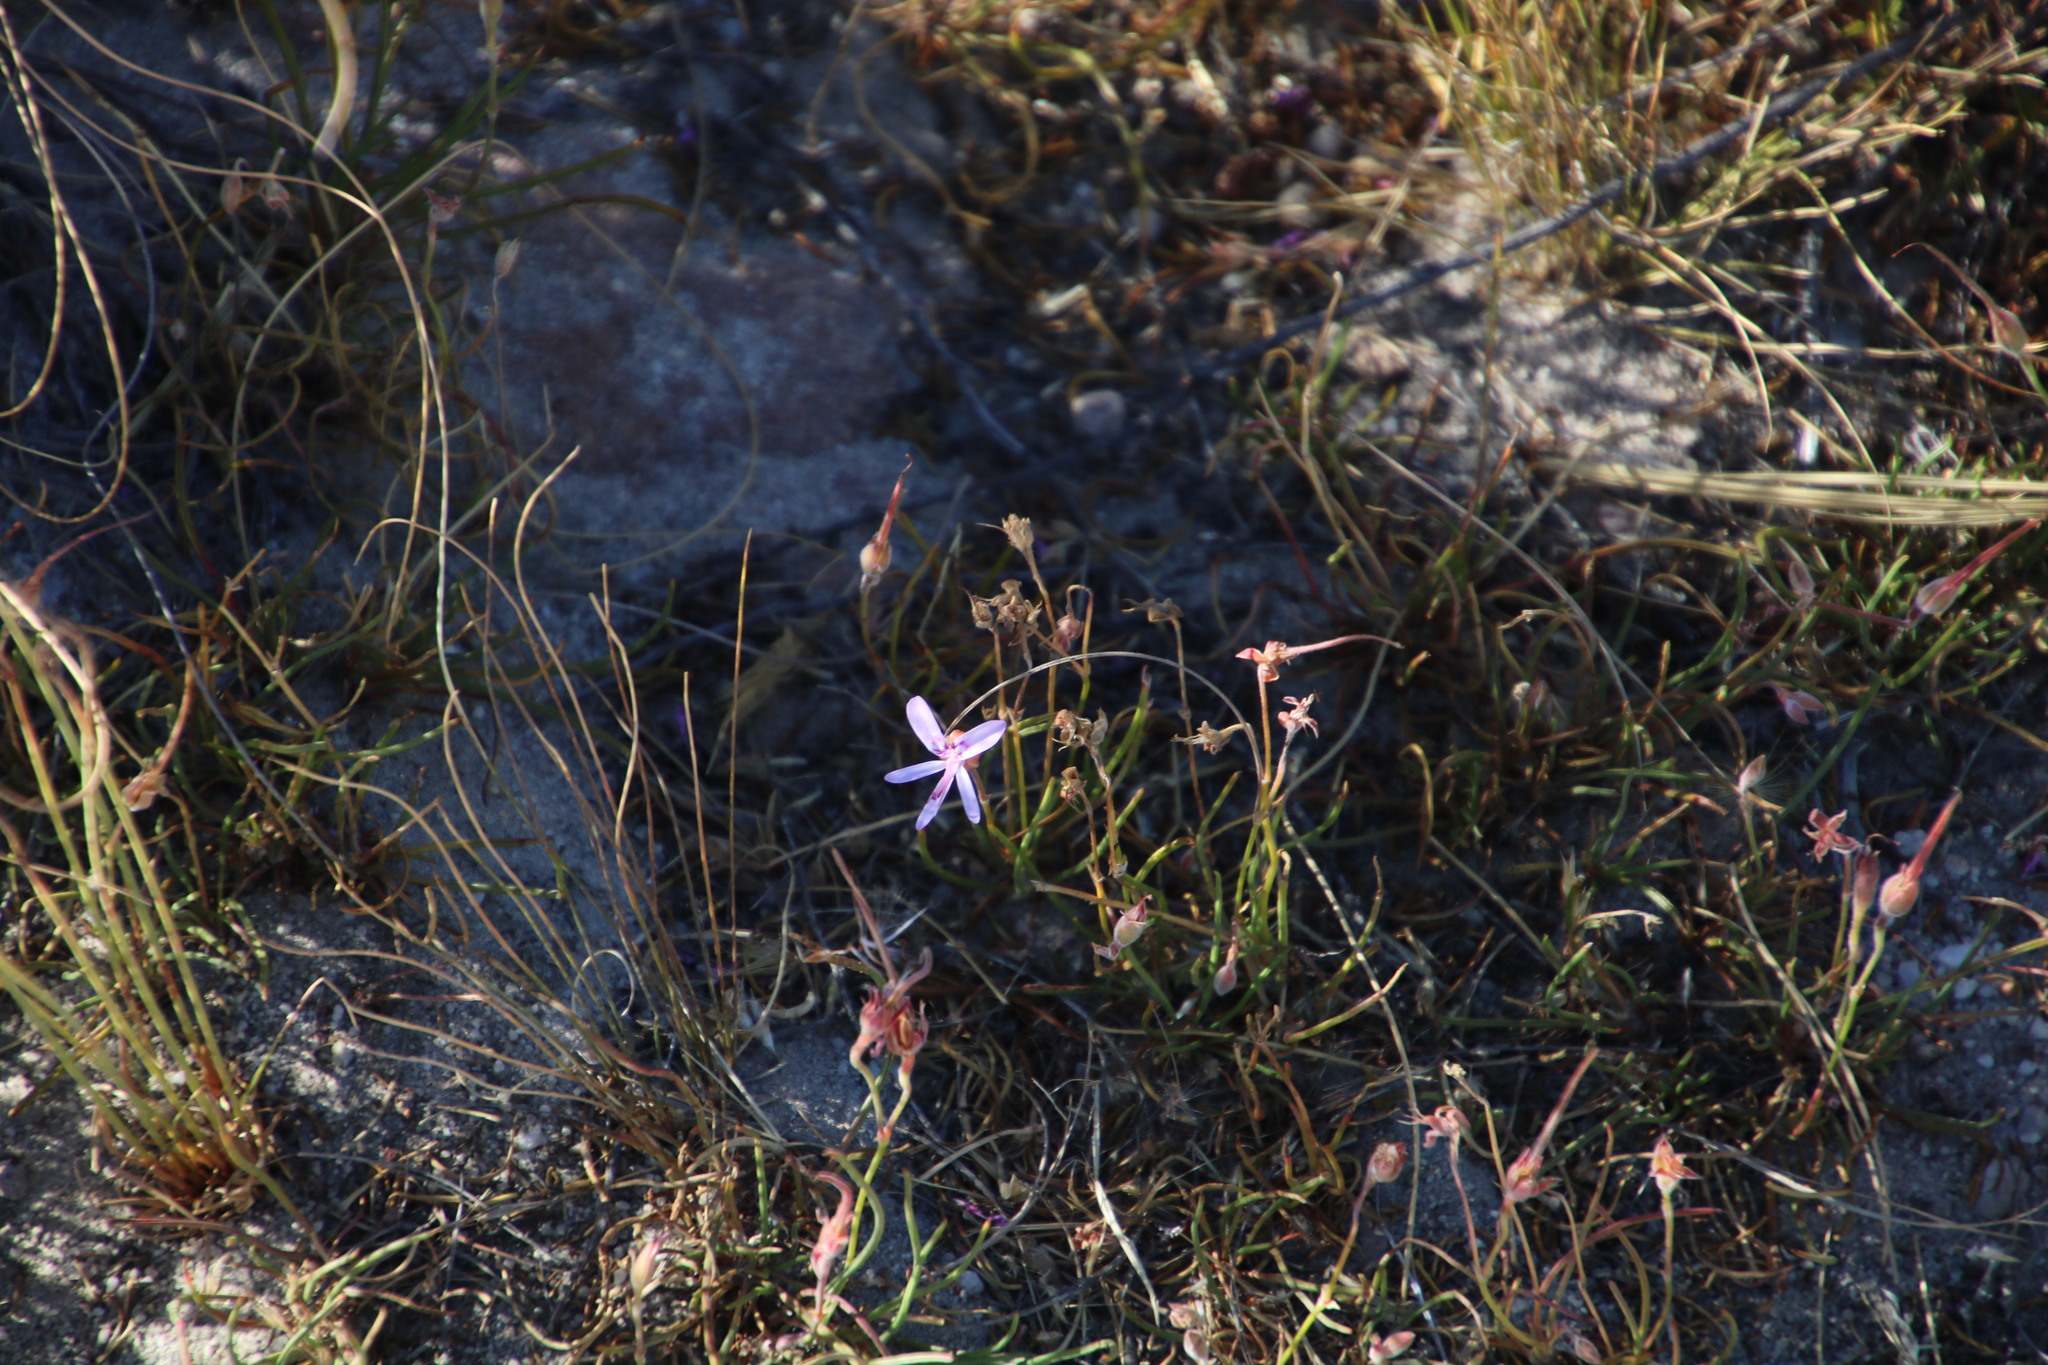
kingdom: Plantae
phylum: Tracheophyta
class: Magnoliopsida
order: Geraniales
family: Geraniaceae
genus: Pelargonium
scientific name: Pelargonium coronopifolium
